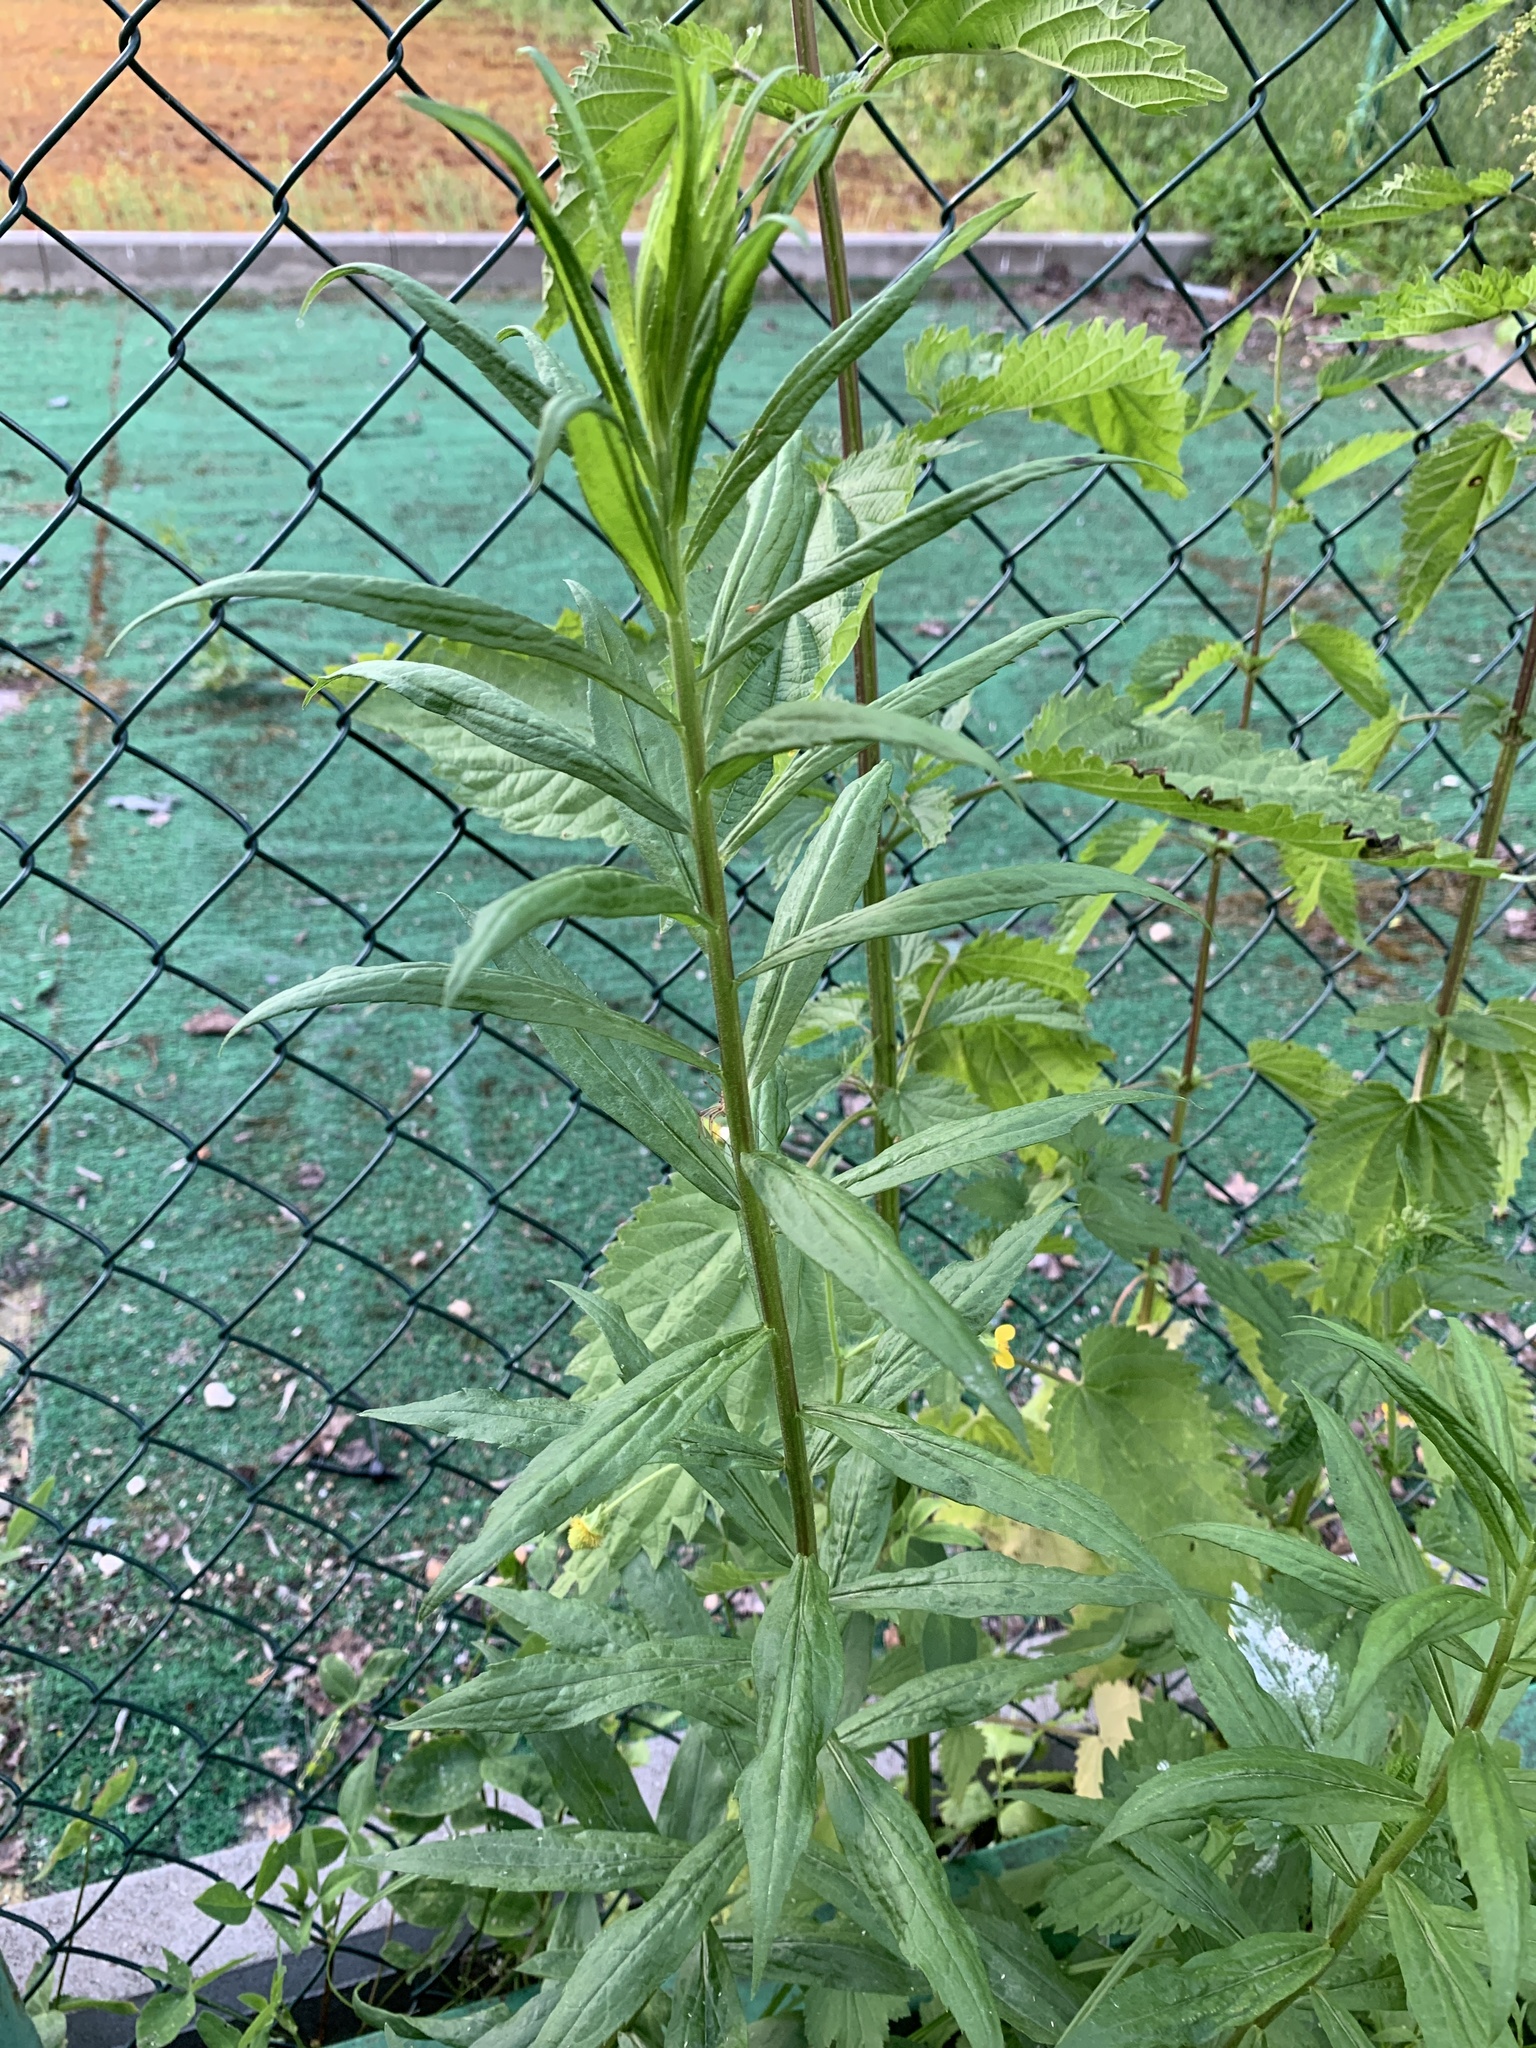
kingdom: Plantae
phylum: Tracheophyta
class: Magnoliopsida
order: Asterales
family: Asteraceae
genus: Solidago
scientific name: Solidago canadensis
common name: Canada goldenrod
